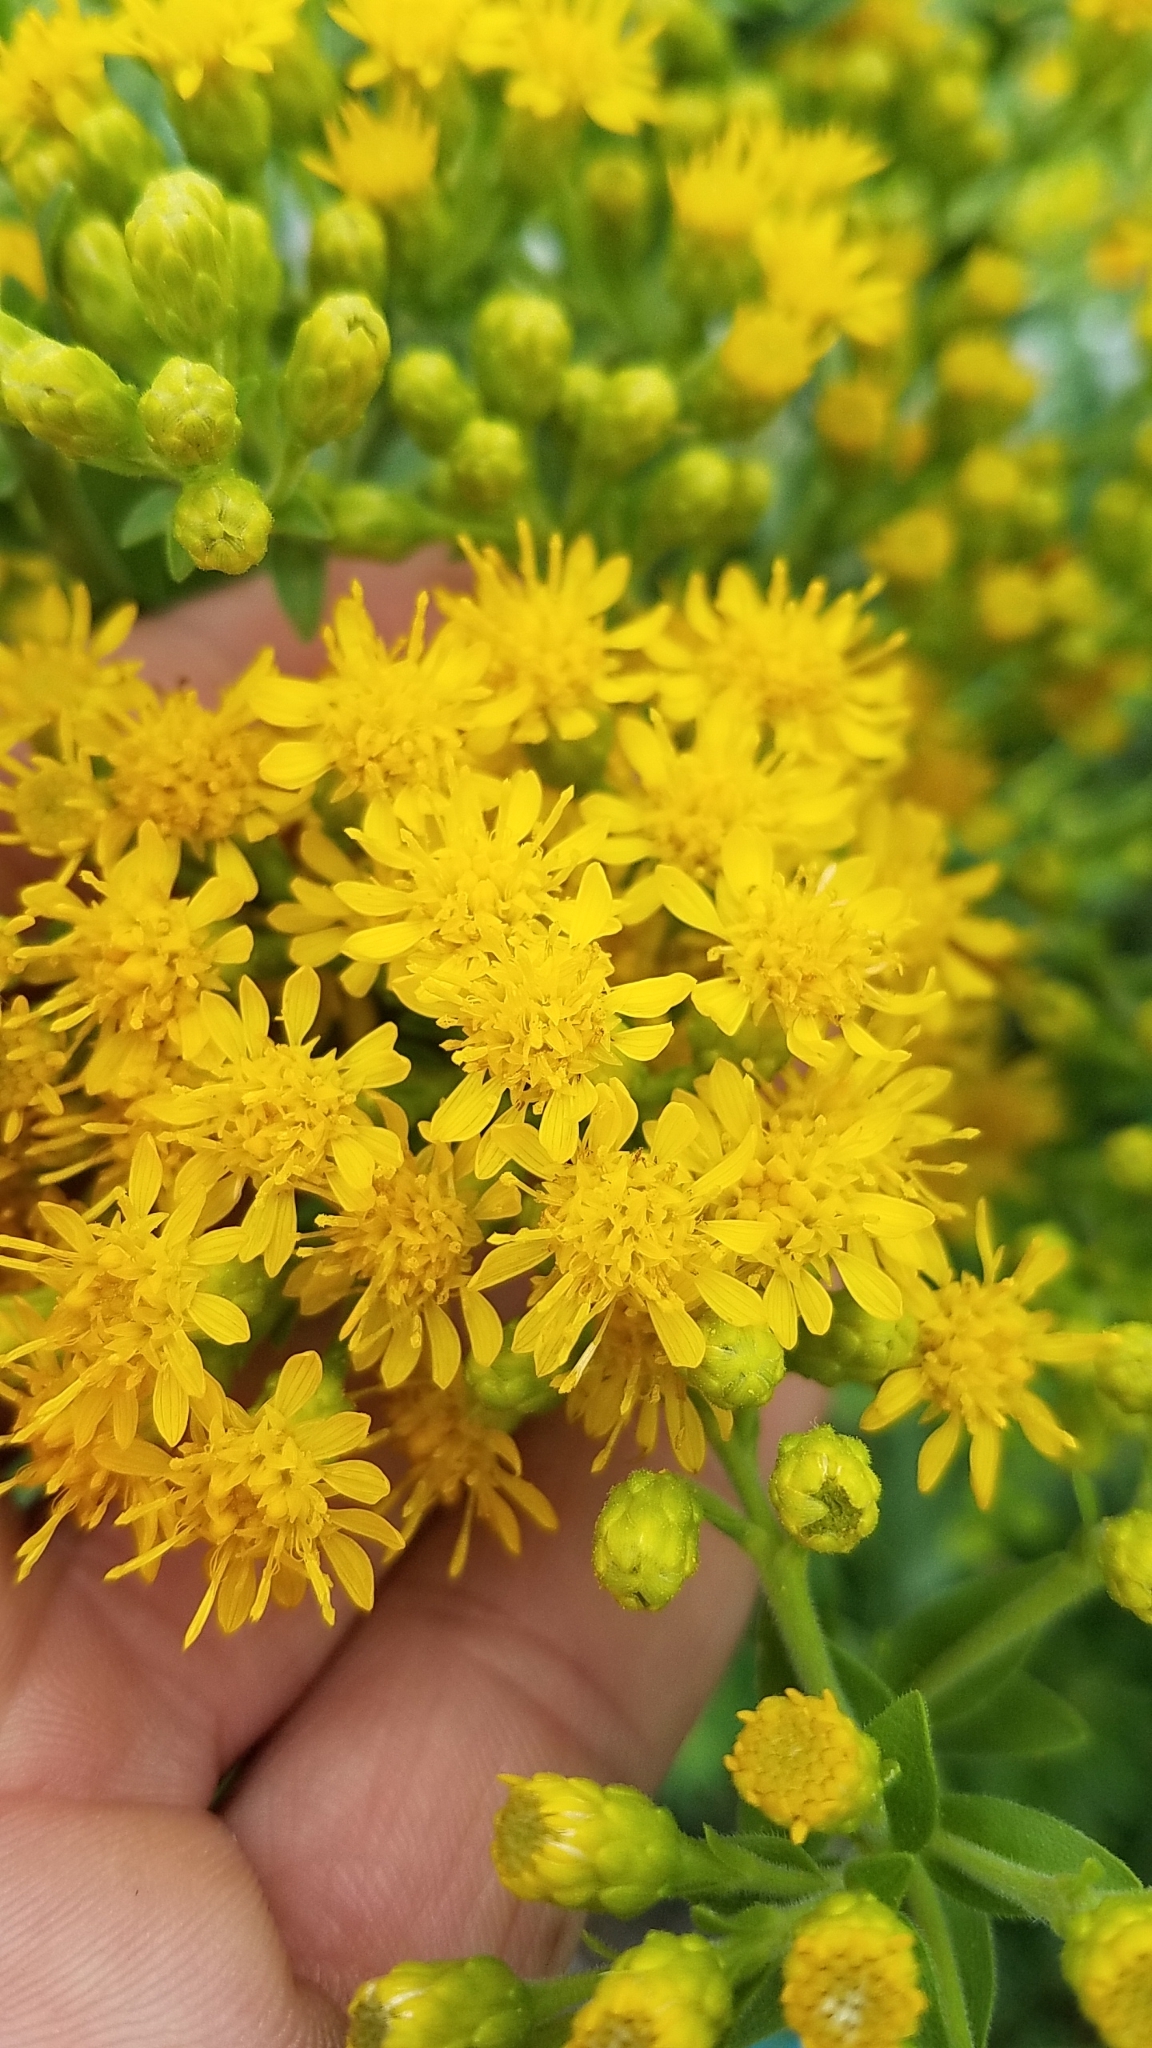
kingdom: Plantae
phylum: Tracheophyta
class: Magnoliopsida
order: Asterales
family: Asteraceae
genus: Solidago
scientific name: Solidago rigida
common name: Rigid goldenrod
